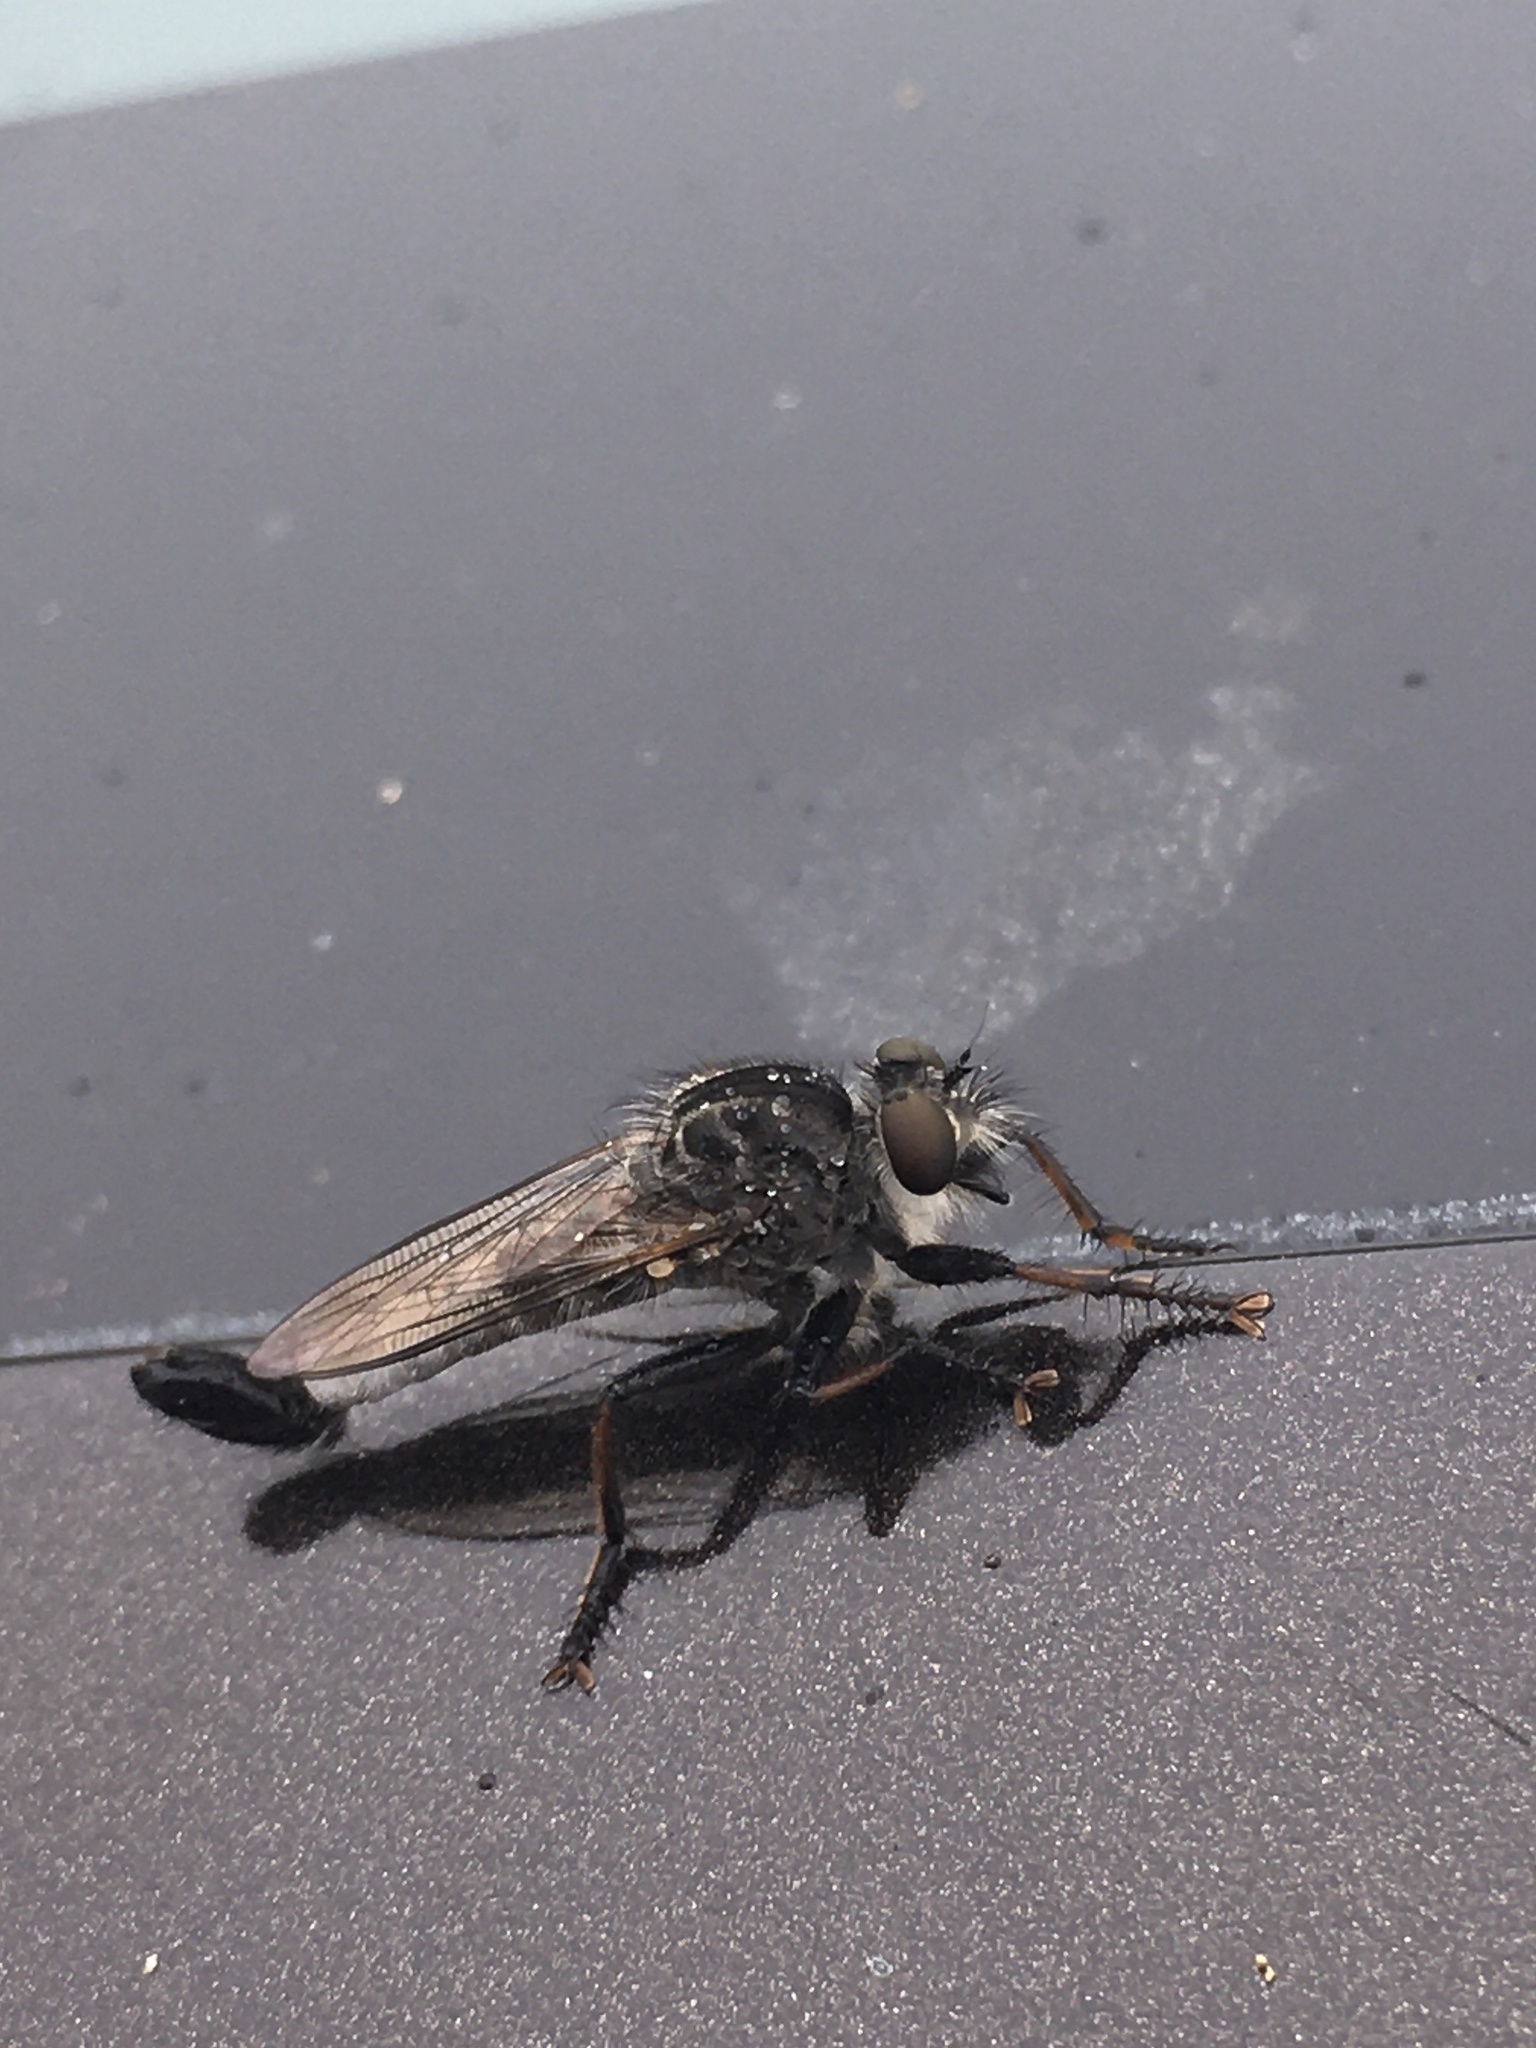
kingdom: Animalia
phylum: Arthropoda
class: Insecta
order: Diptera
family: Asilidae
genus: Efferia
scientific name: Efferia aestuans
